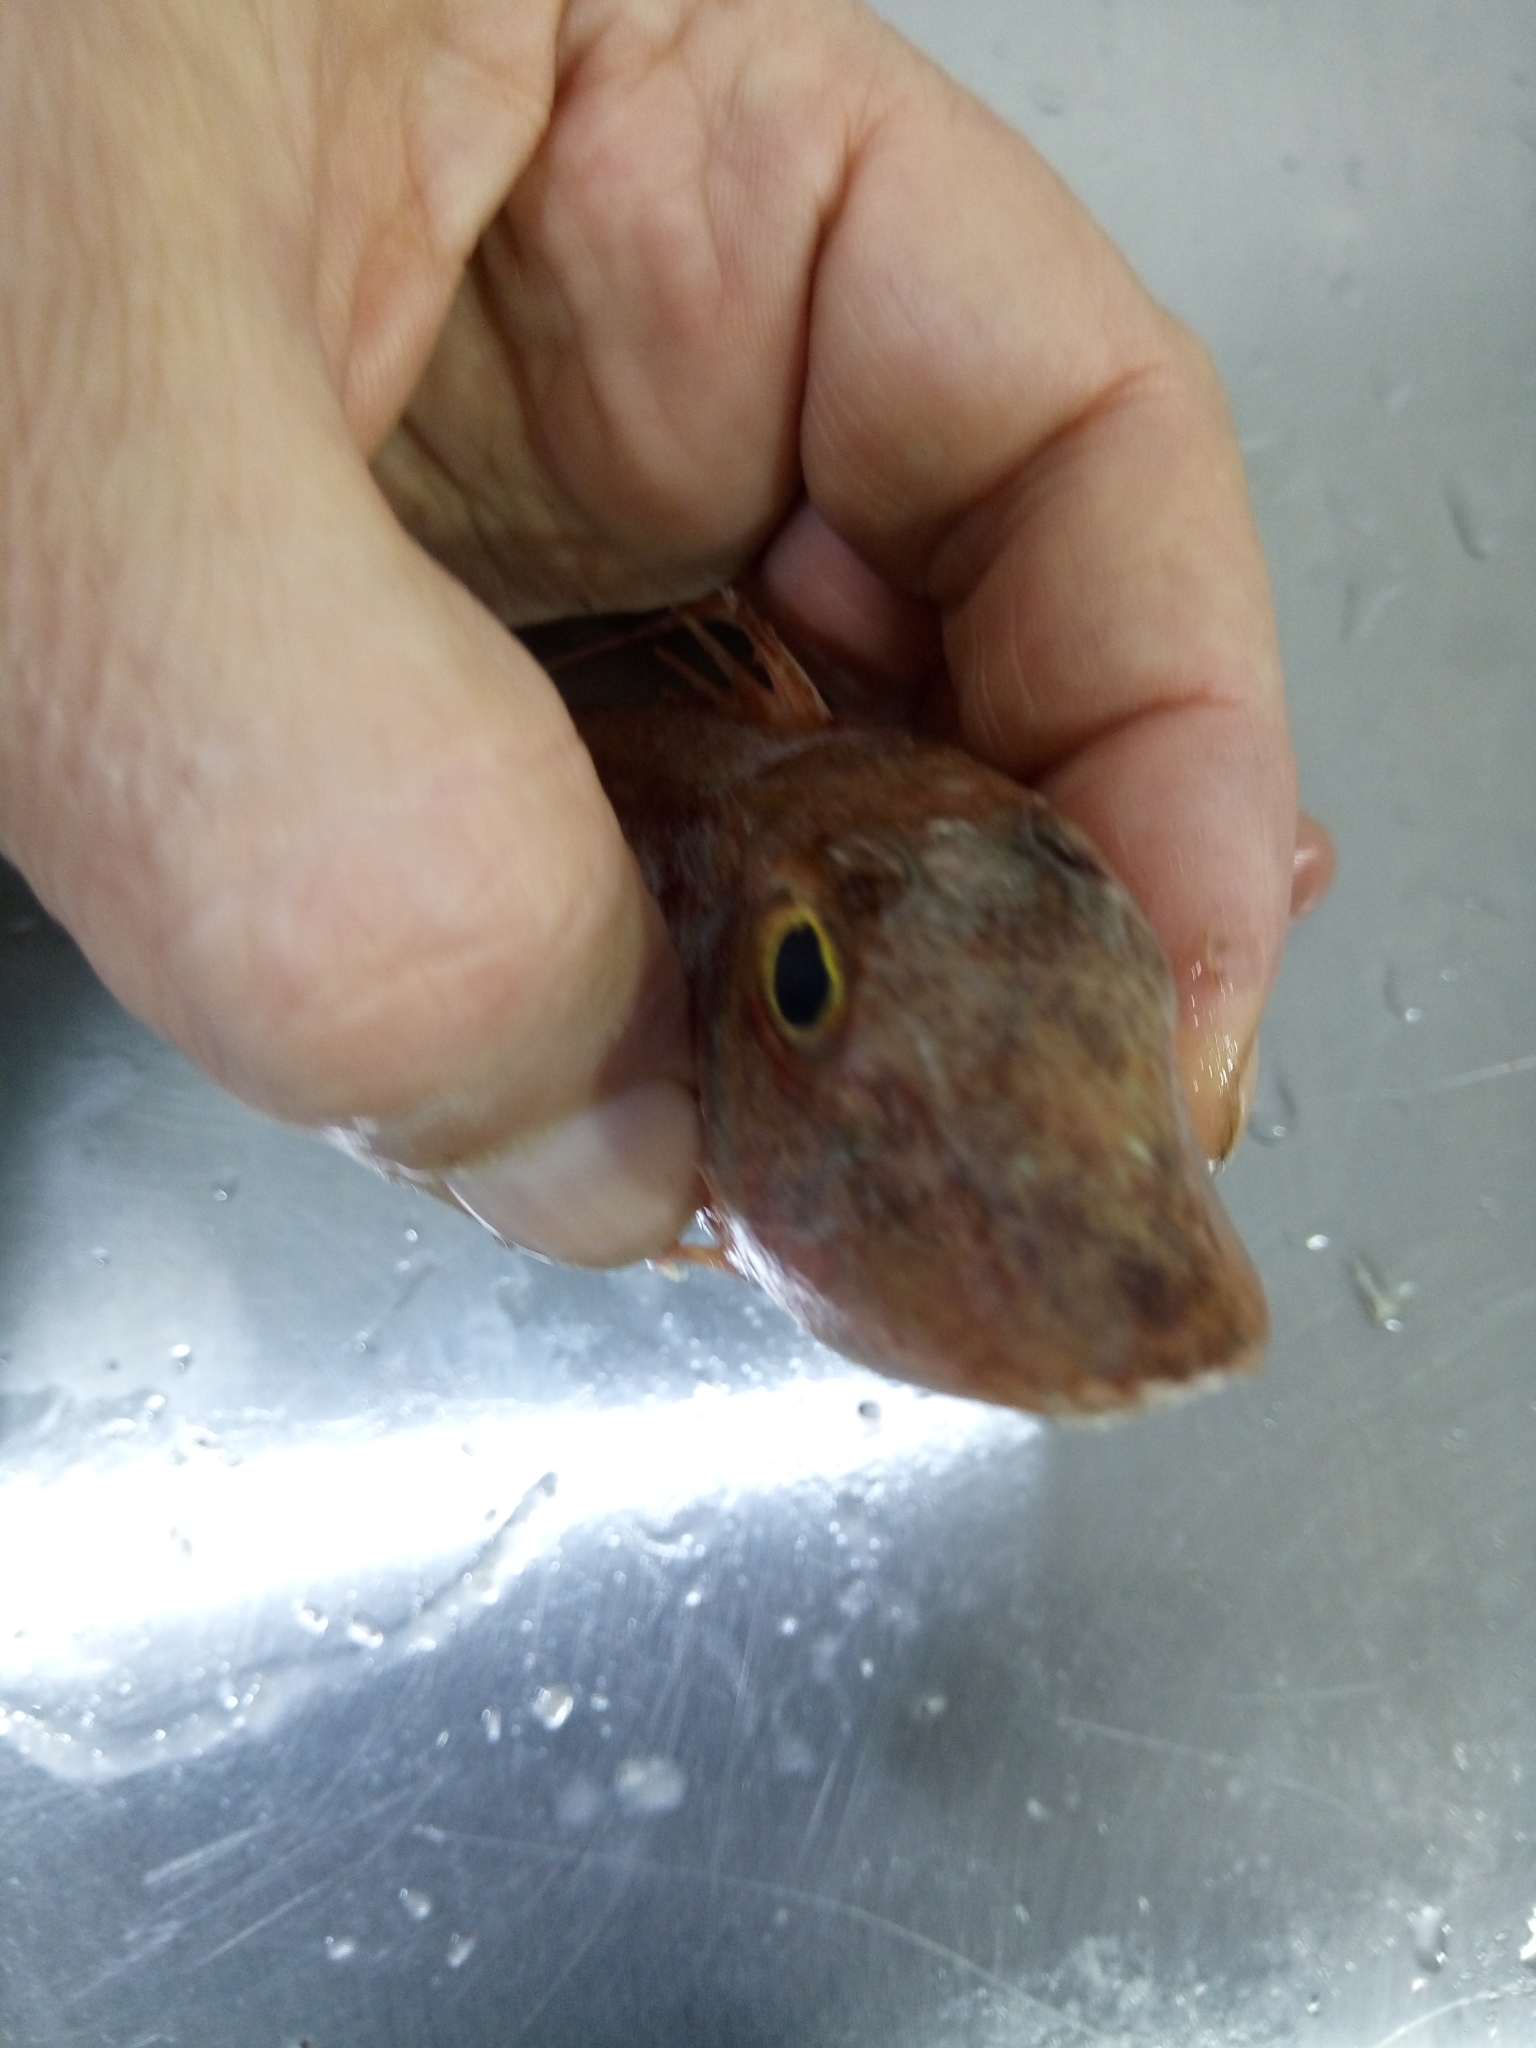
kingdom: Animalia
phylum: Chordata
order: Scorpaeniformes
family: Triglidae
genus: Chelidonichthys
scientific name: Chelidonichthys cuculus
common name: Red gurnard
